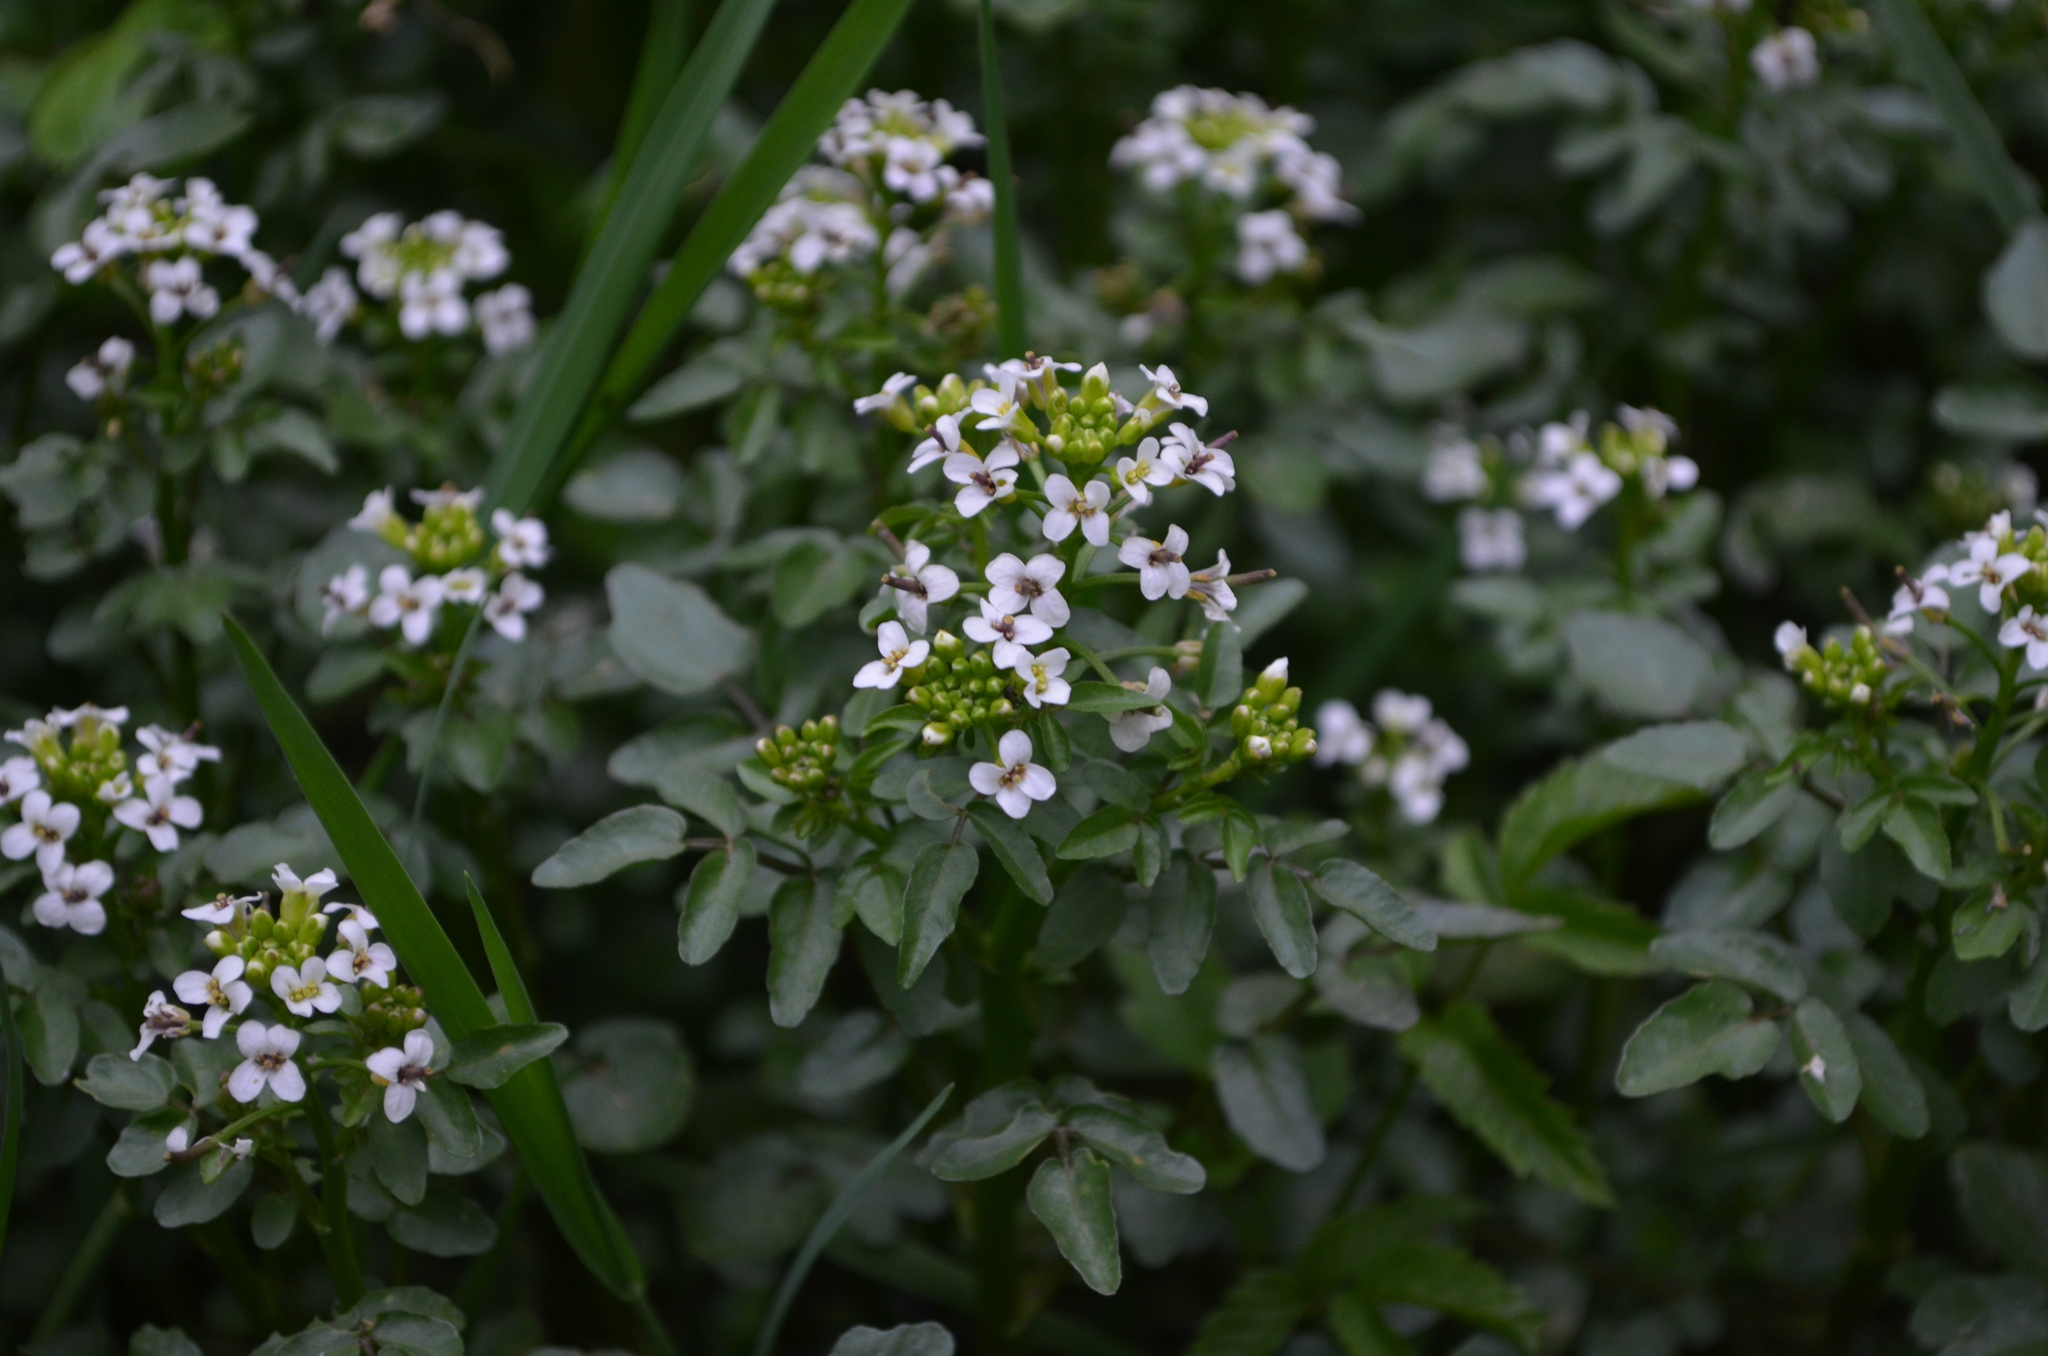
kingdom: Plantae
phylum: Tracheophyta
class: Magnoliopsida
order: Brassicales
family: Brassicaceae
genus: Nasturtium
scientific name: Nasturtium officinale
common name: Watercress
